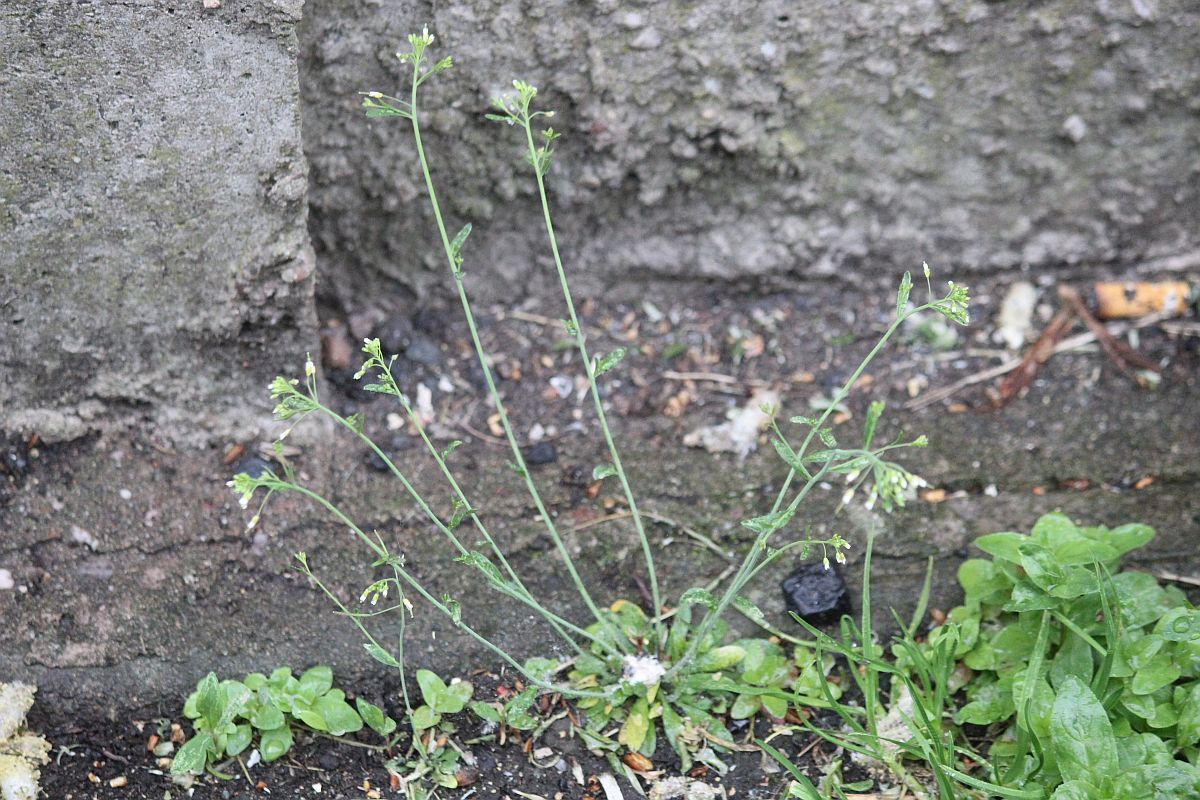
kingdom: Plantae
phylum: Tracheophyta
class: Magnoliopsida
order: Brassicales
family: Brassicaceae
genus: Arabidopsis
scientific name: Arabidopsis thaliana
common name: Thale cress
